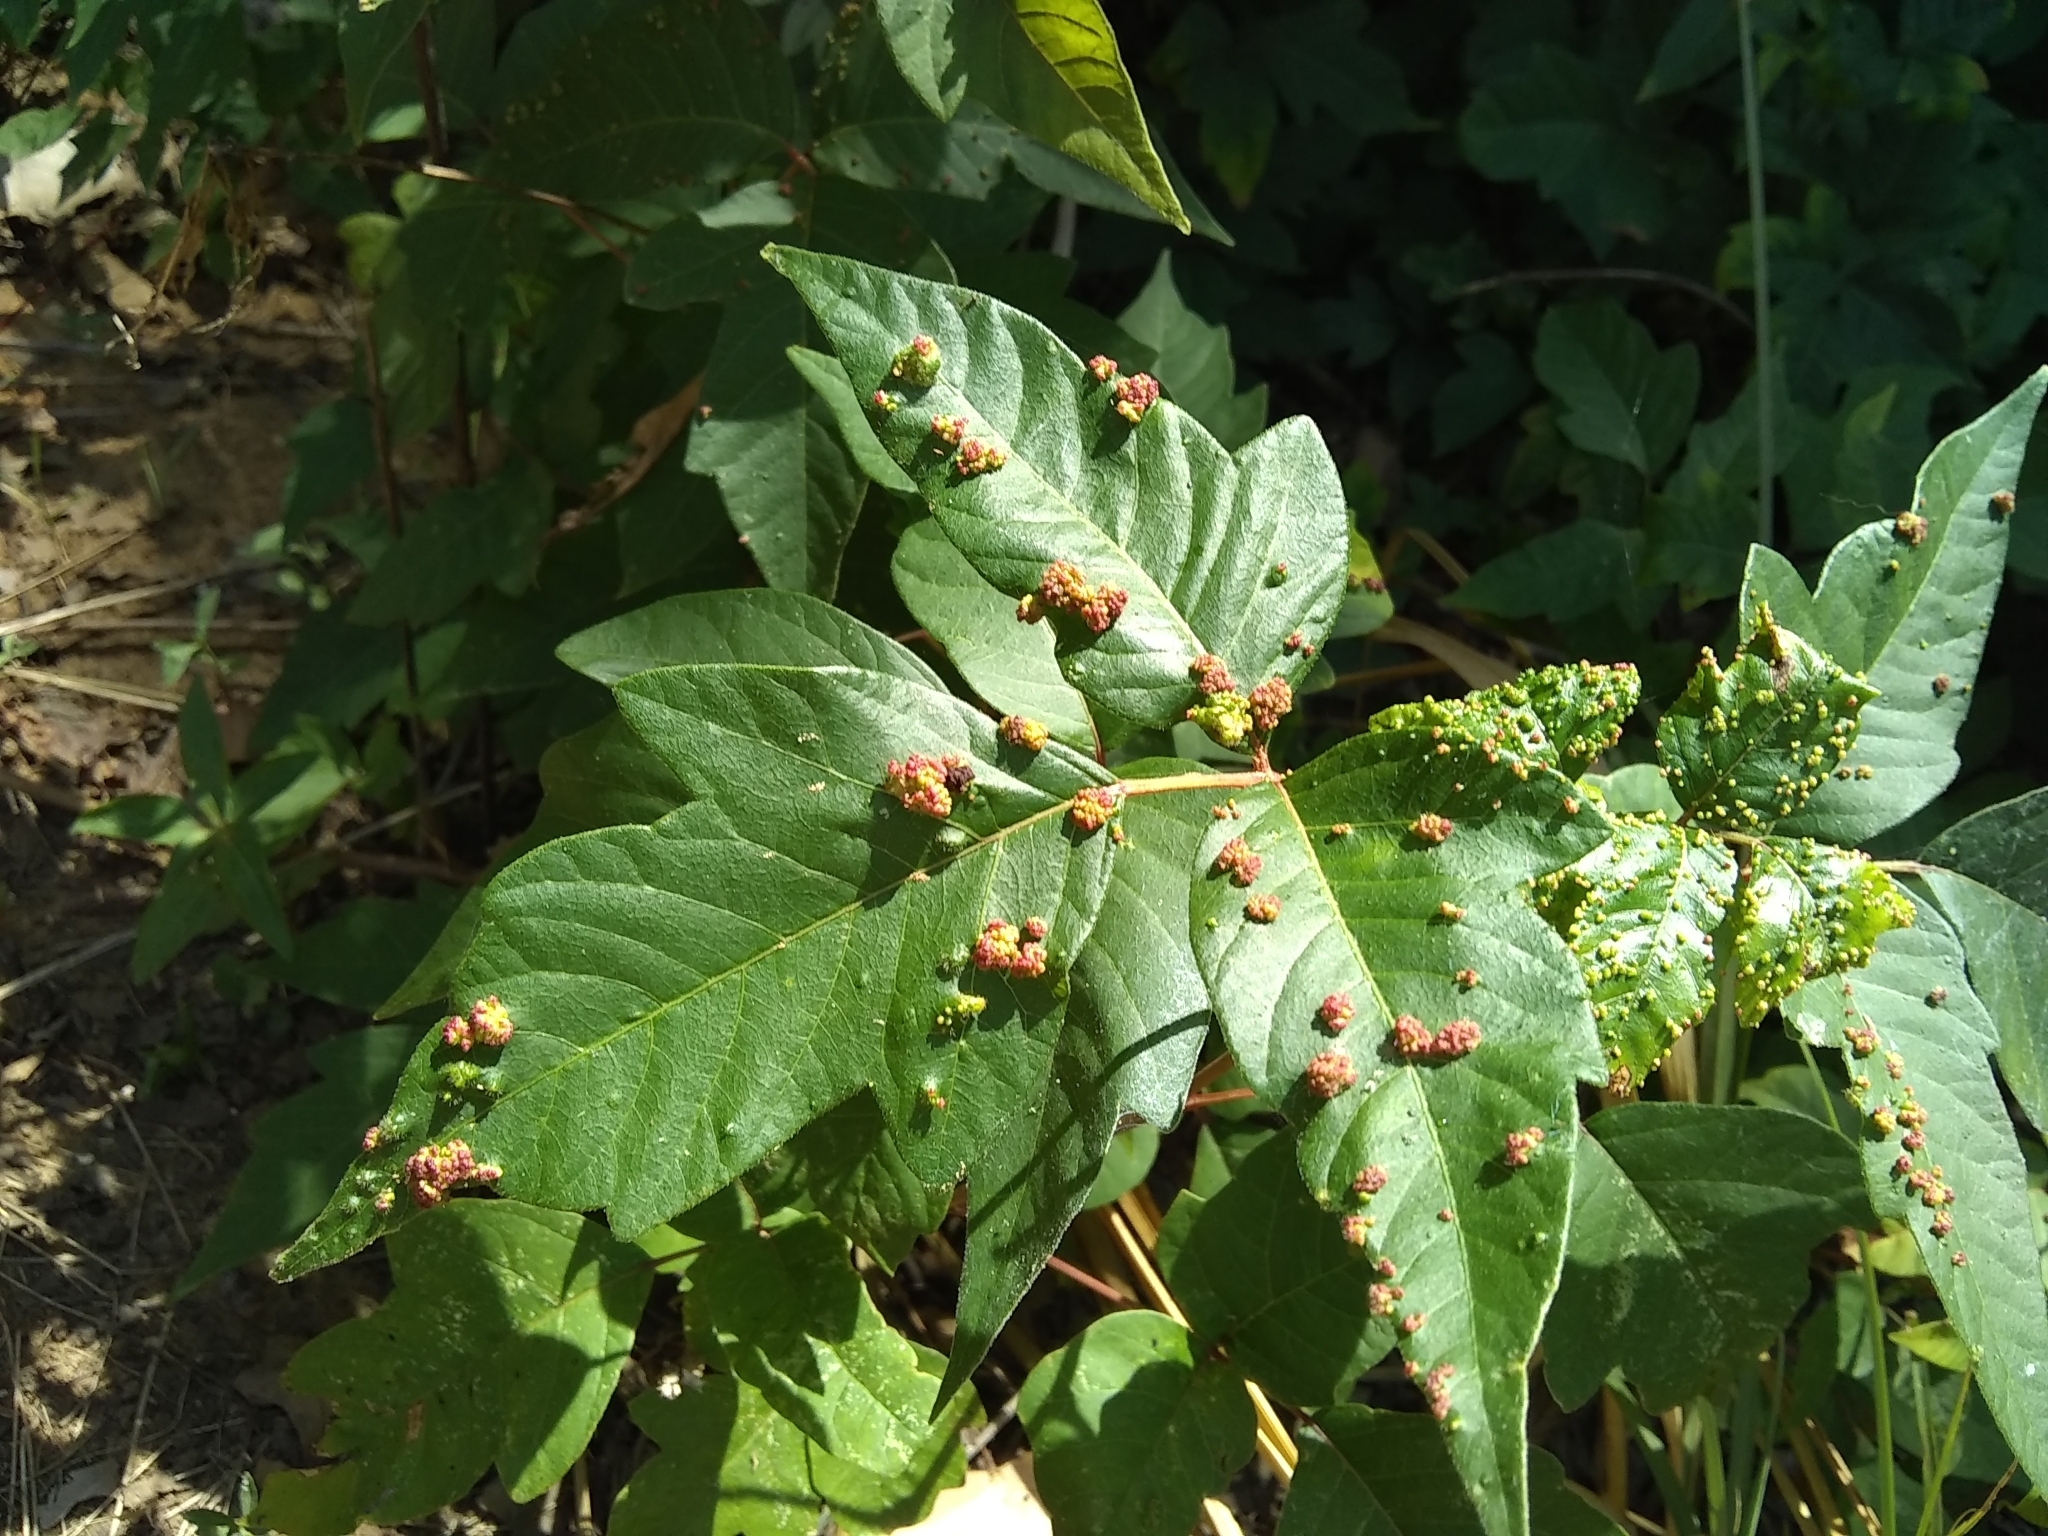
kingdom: Animalia
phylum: Arthropoda
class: Arachnida
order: Trombidiformes
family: Eriophyidae
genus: Aculops
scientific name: Aculops
